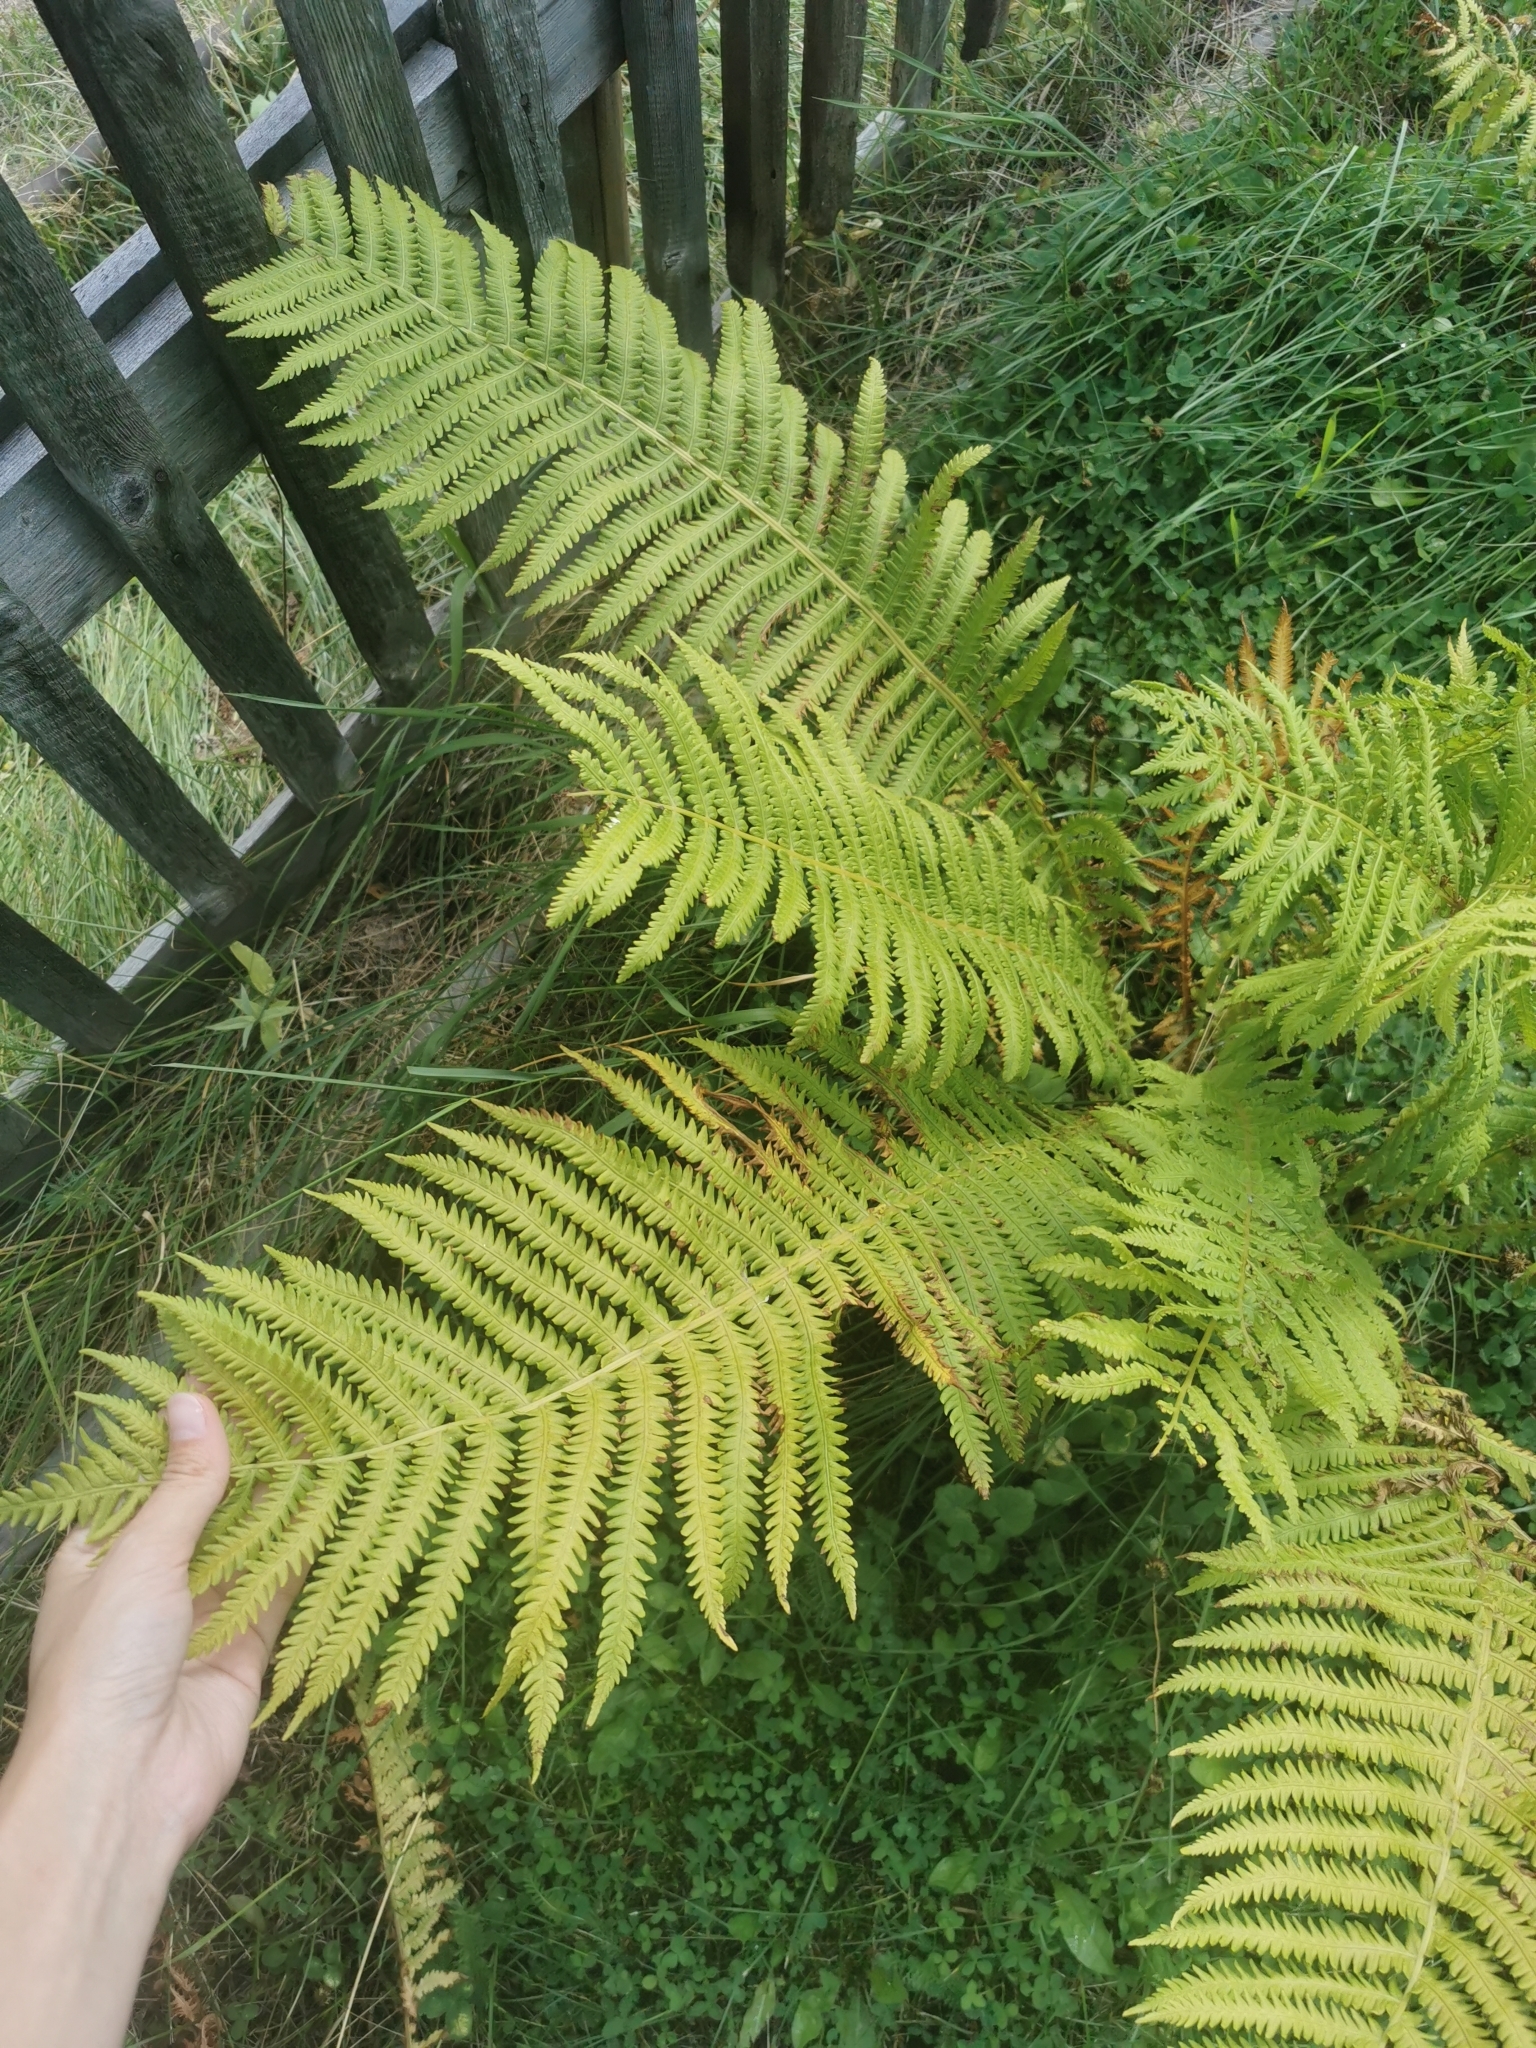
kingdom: Plantae
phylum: Tracheophyta
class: Polypodiopsida
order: Polypodiales
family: Onocleaceae
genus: Matteuccia
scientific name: Matteuccia struthiopteris
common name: Ostrich fern
